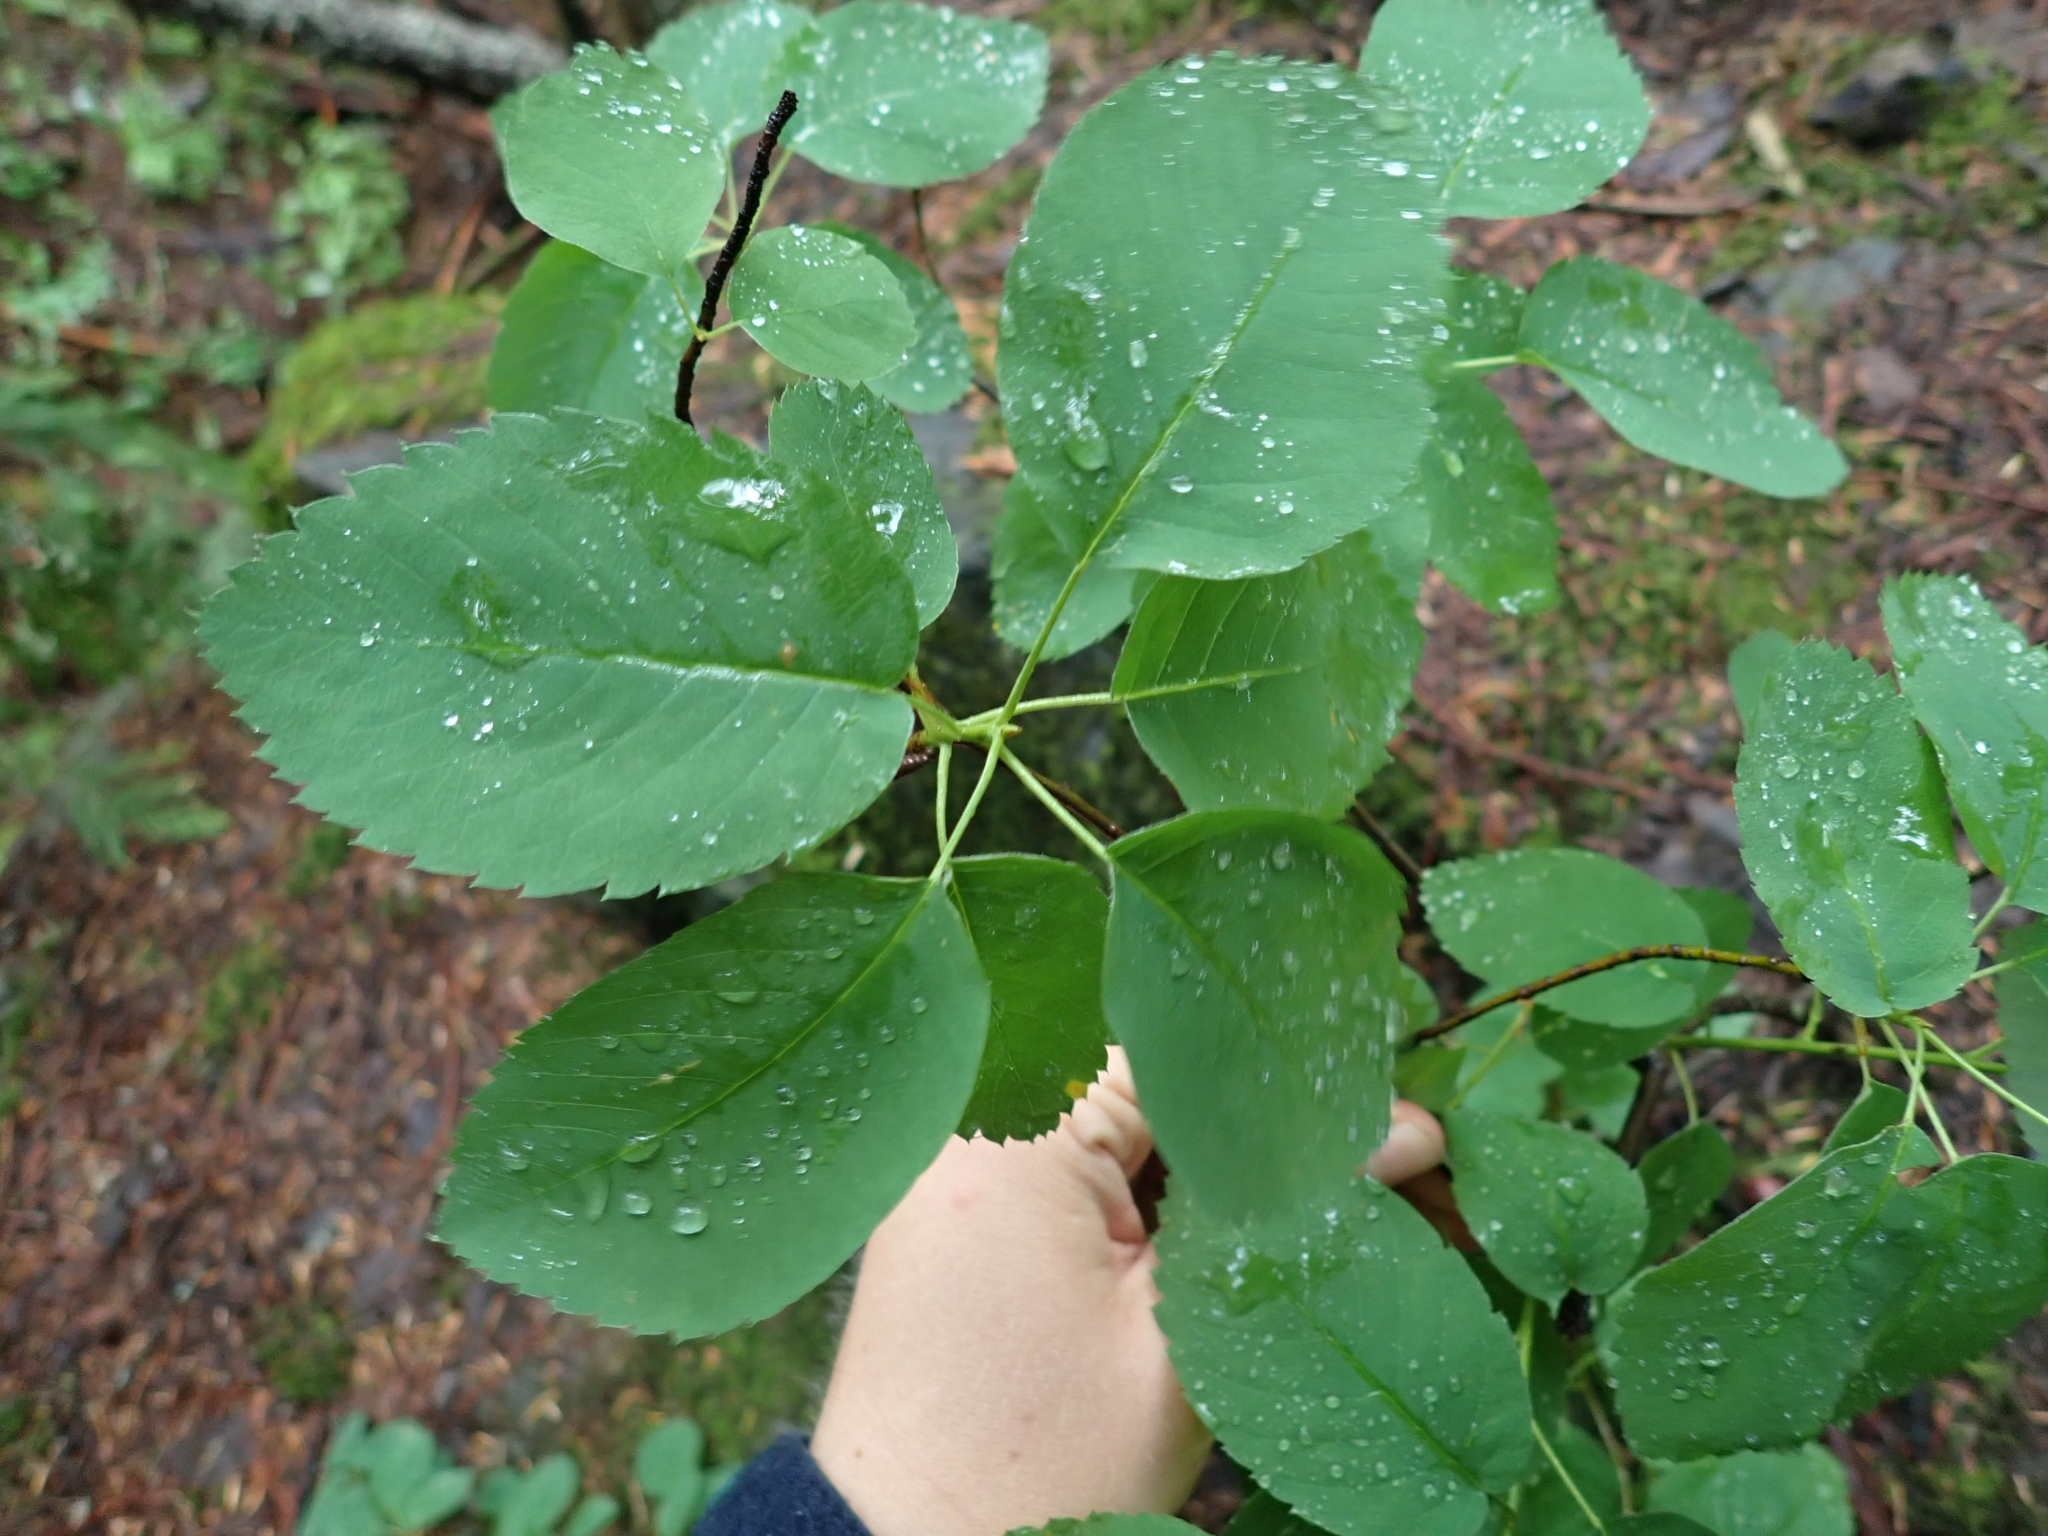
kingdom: Plantae
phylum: Tracheophyta
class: Magnoliopsida
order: Rosales
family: Rosaceae
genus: Amelanchier
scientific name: Amelanchier alnifolia
